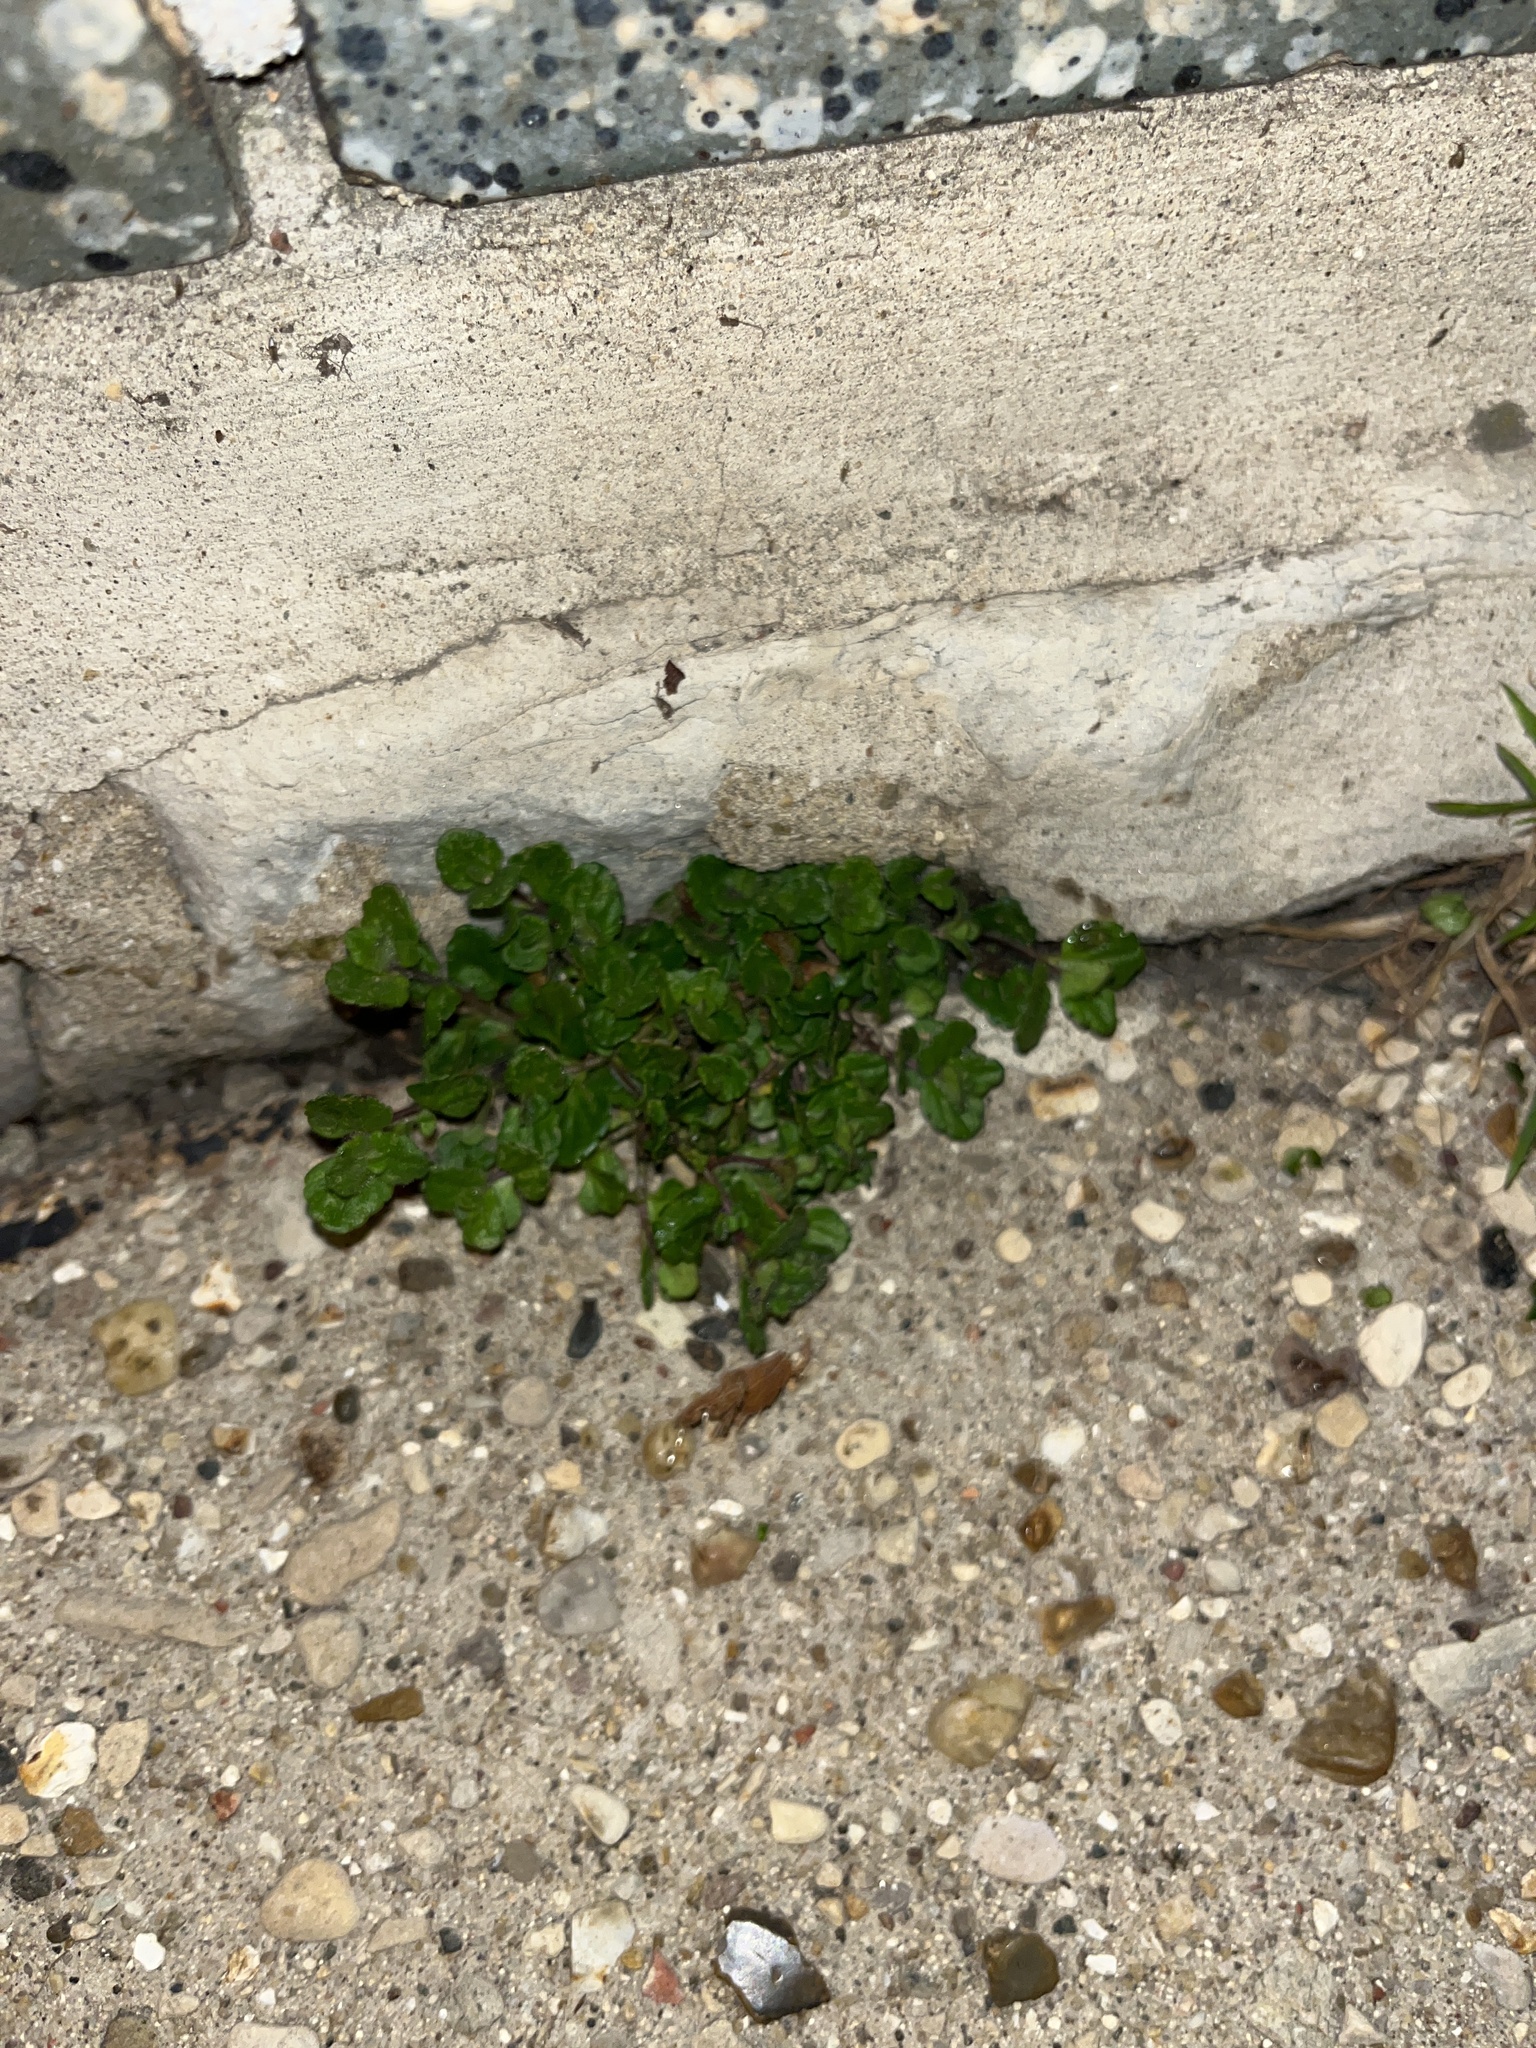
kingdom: Plantae
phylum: Tracheophyta
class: Magnoliopsida
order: Lamiales
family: Plantaginaceae
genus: Veronica
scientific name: Veronica arvensis
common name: Corn speedwell
